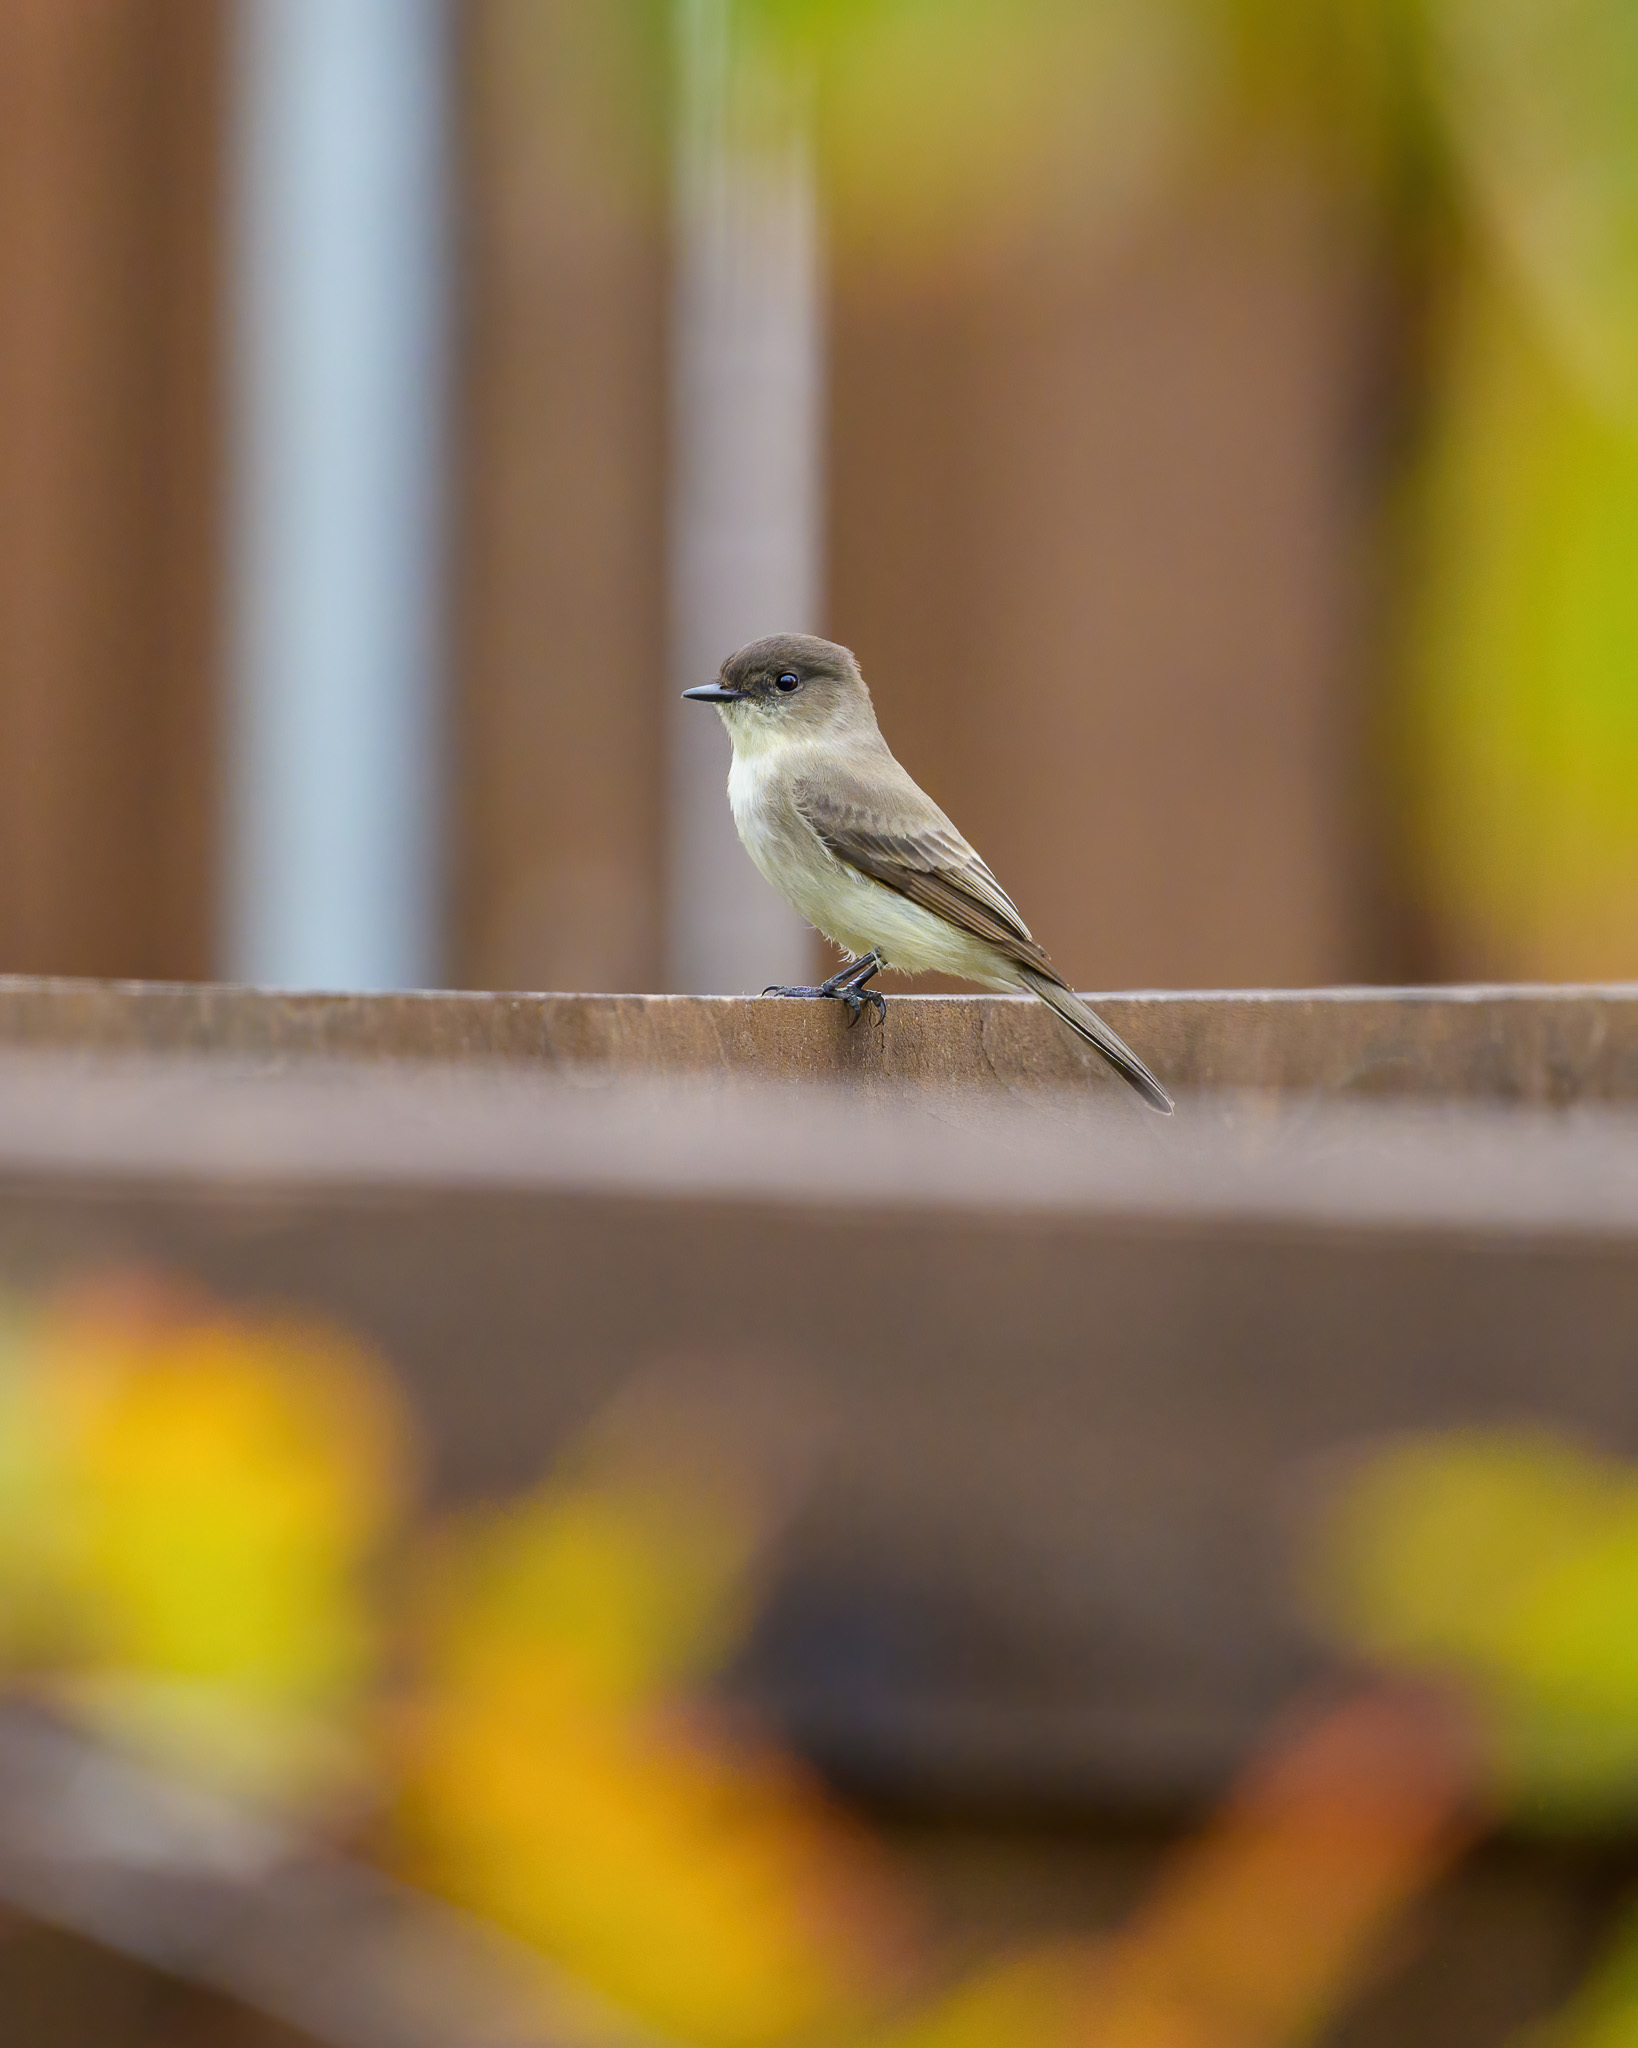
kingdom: Animalia
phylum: Chordata
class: Aves
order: Passeriformes
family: Tyrannidae
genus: Sayornis
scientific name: Sayornis phoebe
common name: Eastern phoebe
